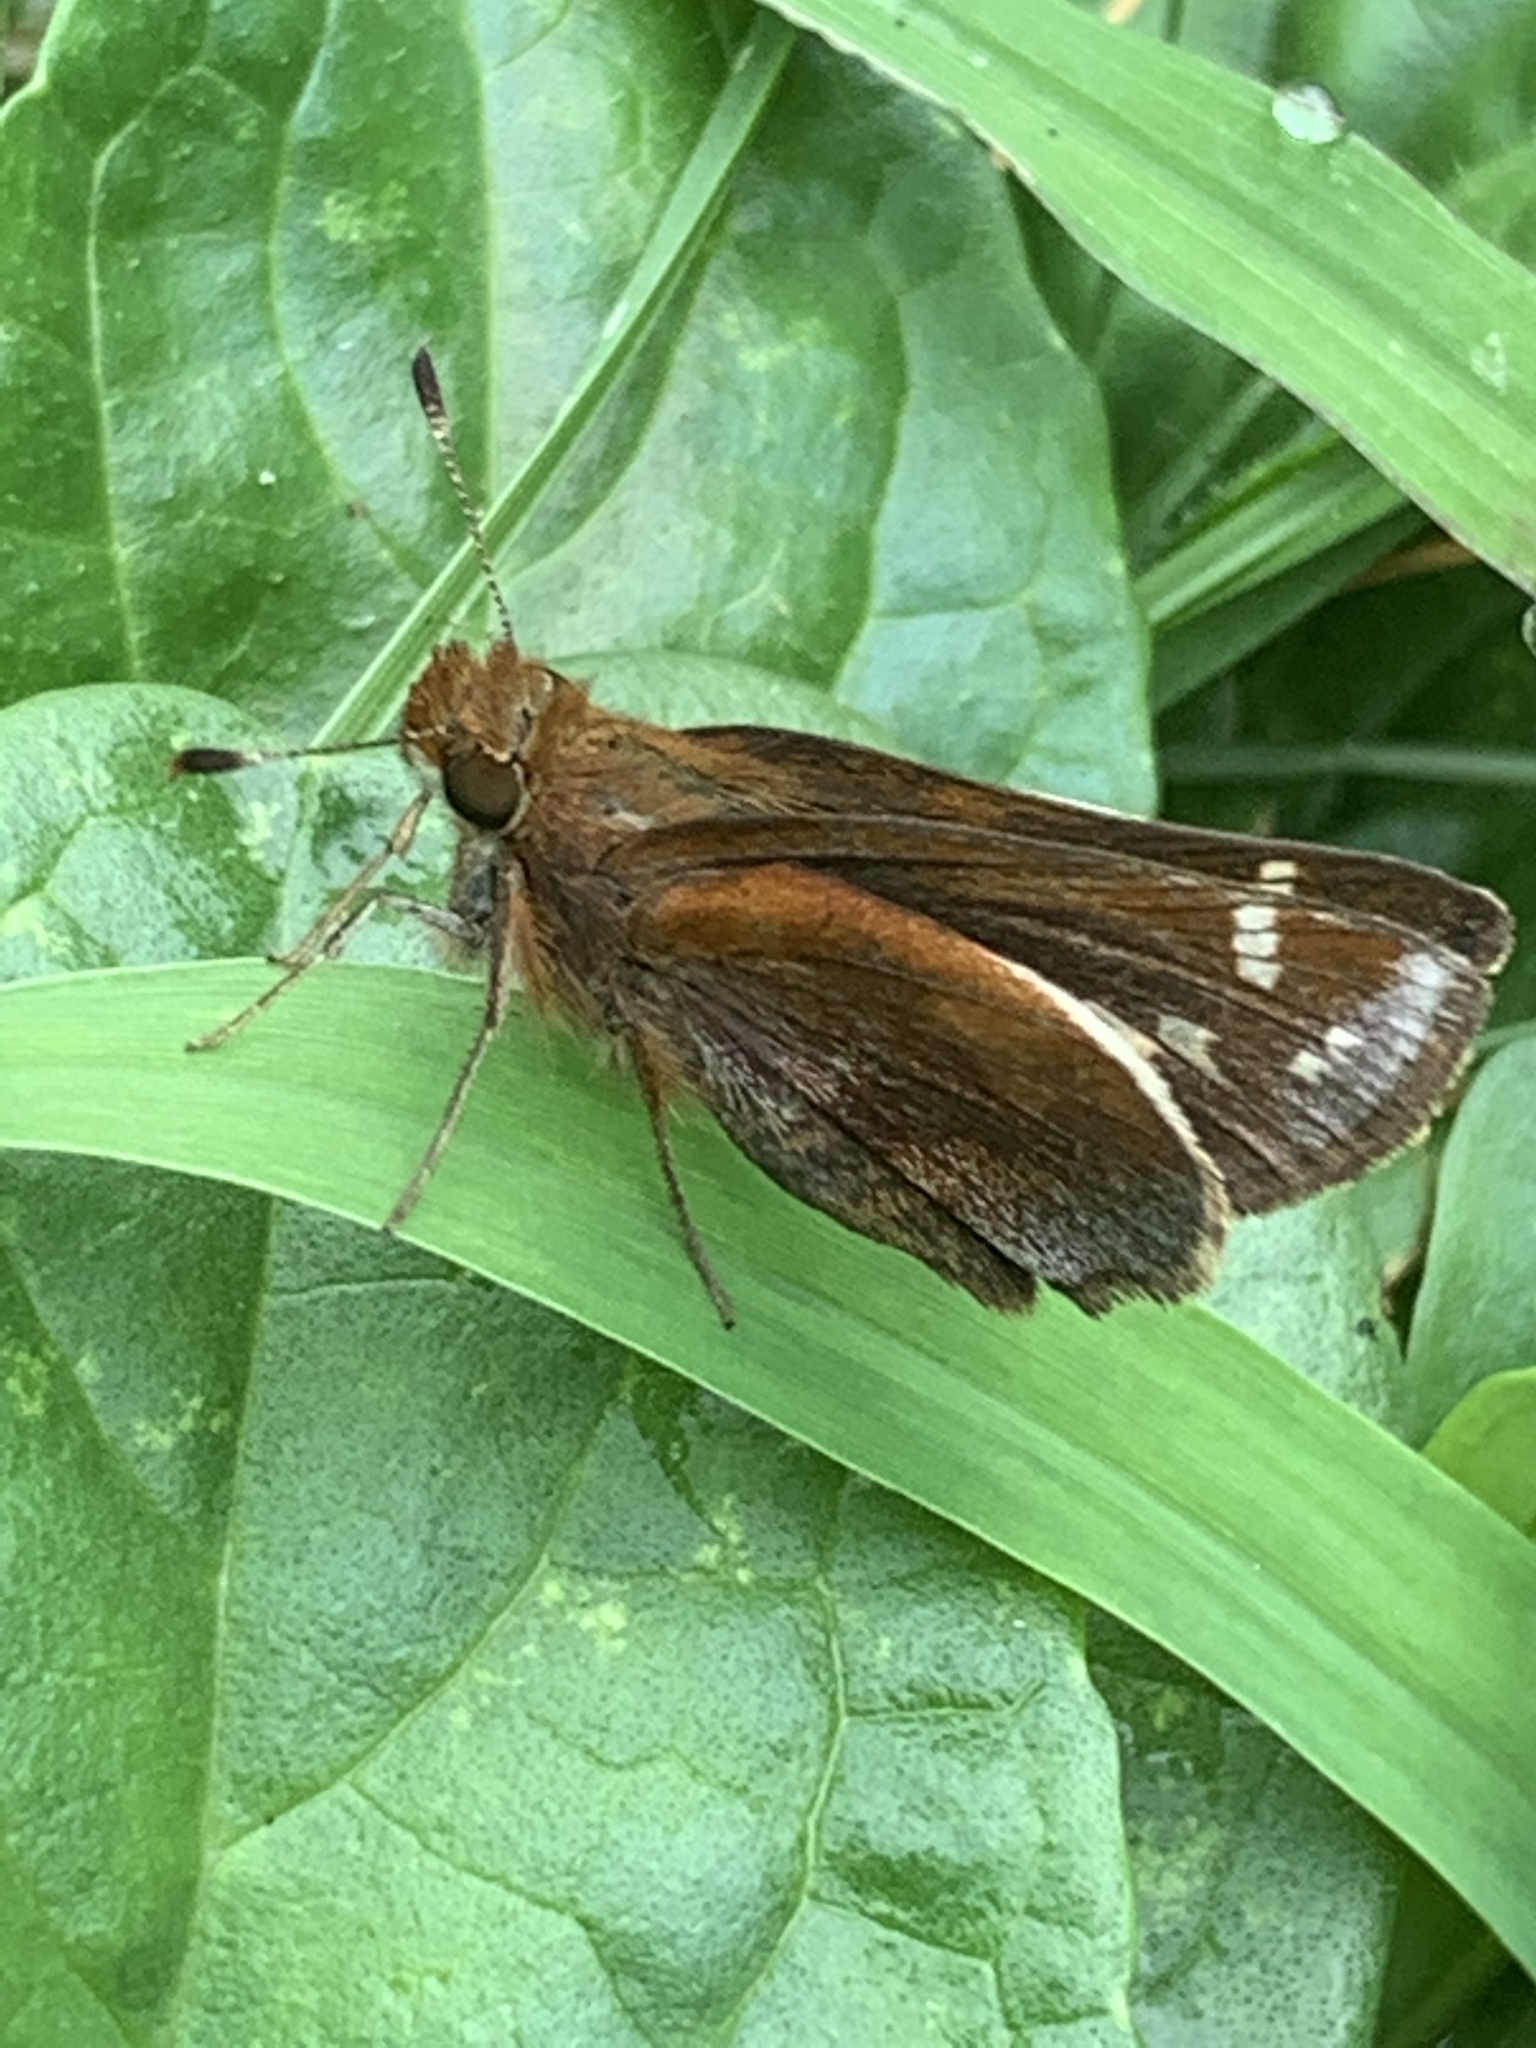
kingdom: Animalia
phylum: Arthropoda
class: Insecta
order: Lepidoptera
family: Hesperiidae
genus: Lon
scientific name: Lon zabulon
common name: Zabulon skipper
